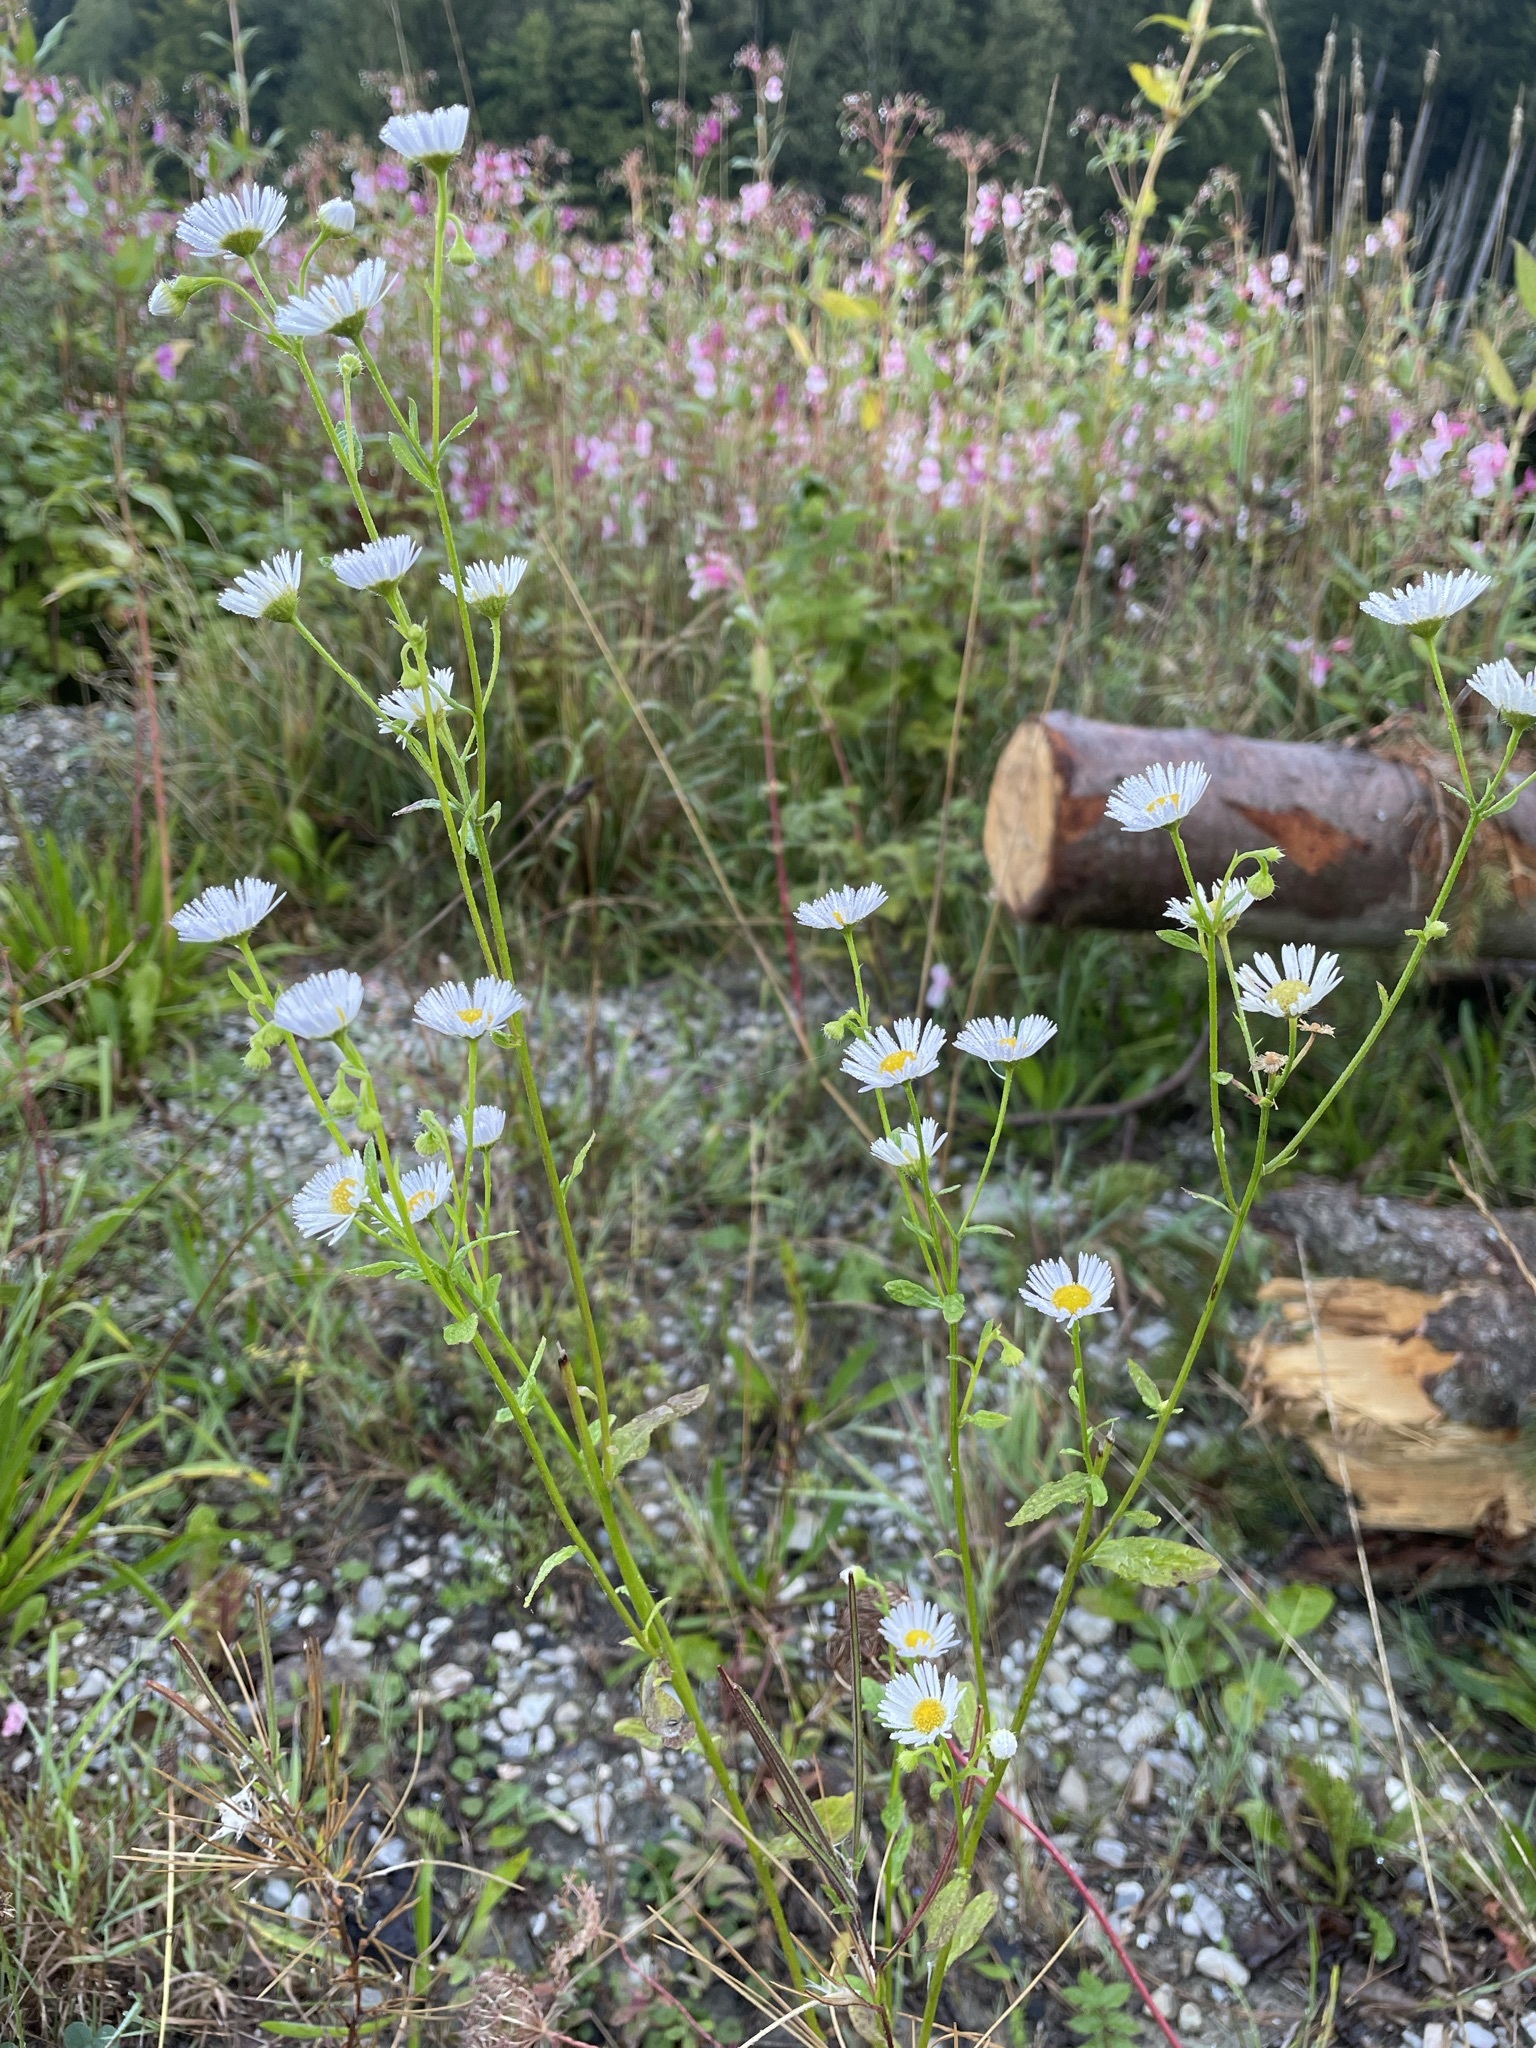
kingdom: Plantae
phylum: Tracheophyta
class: Magnoliopsida
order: Asterales
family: Asteraceae
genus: Erigeron
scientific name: Erigeron annuus
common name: Tall fleabane
